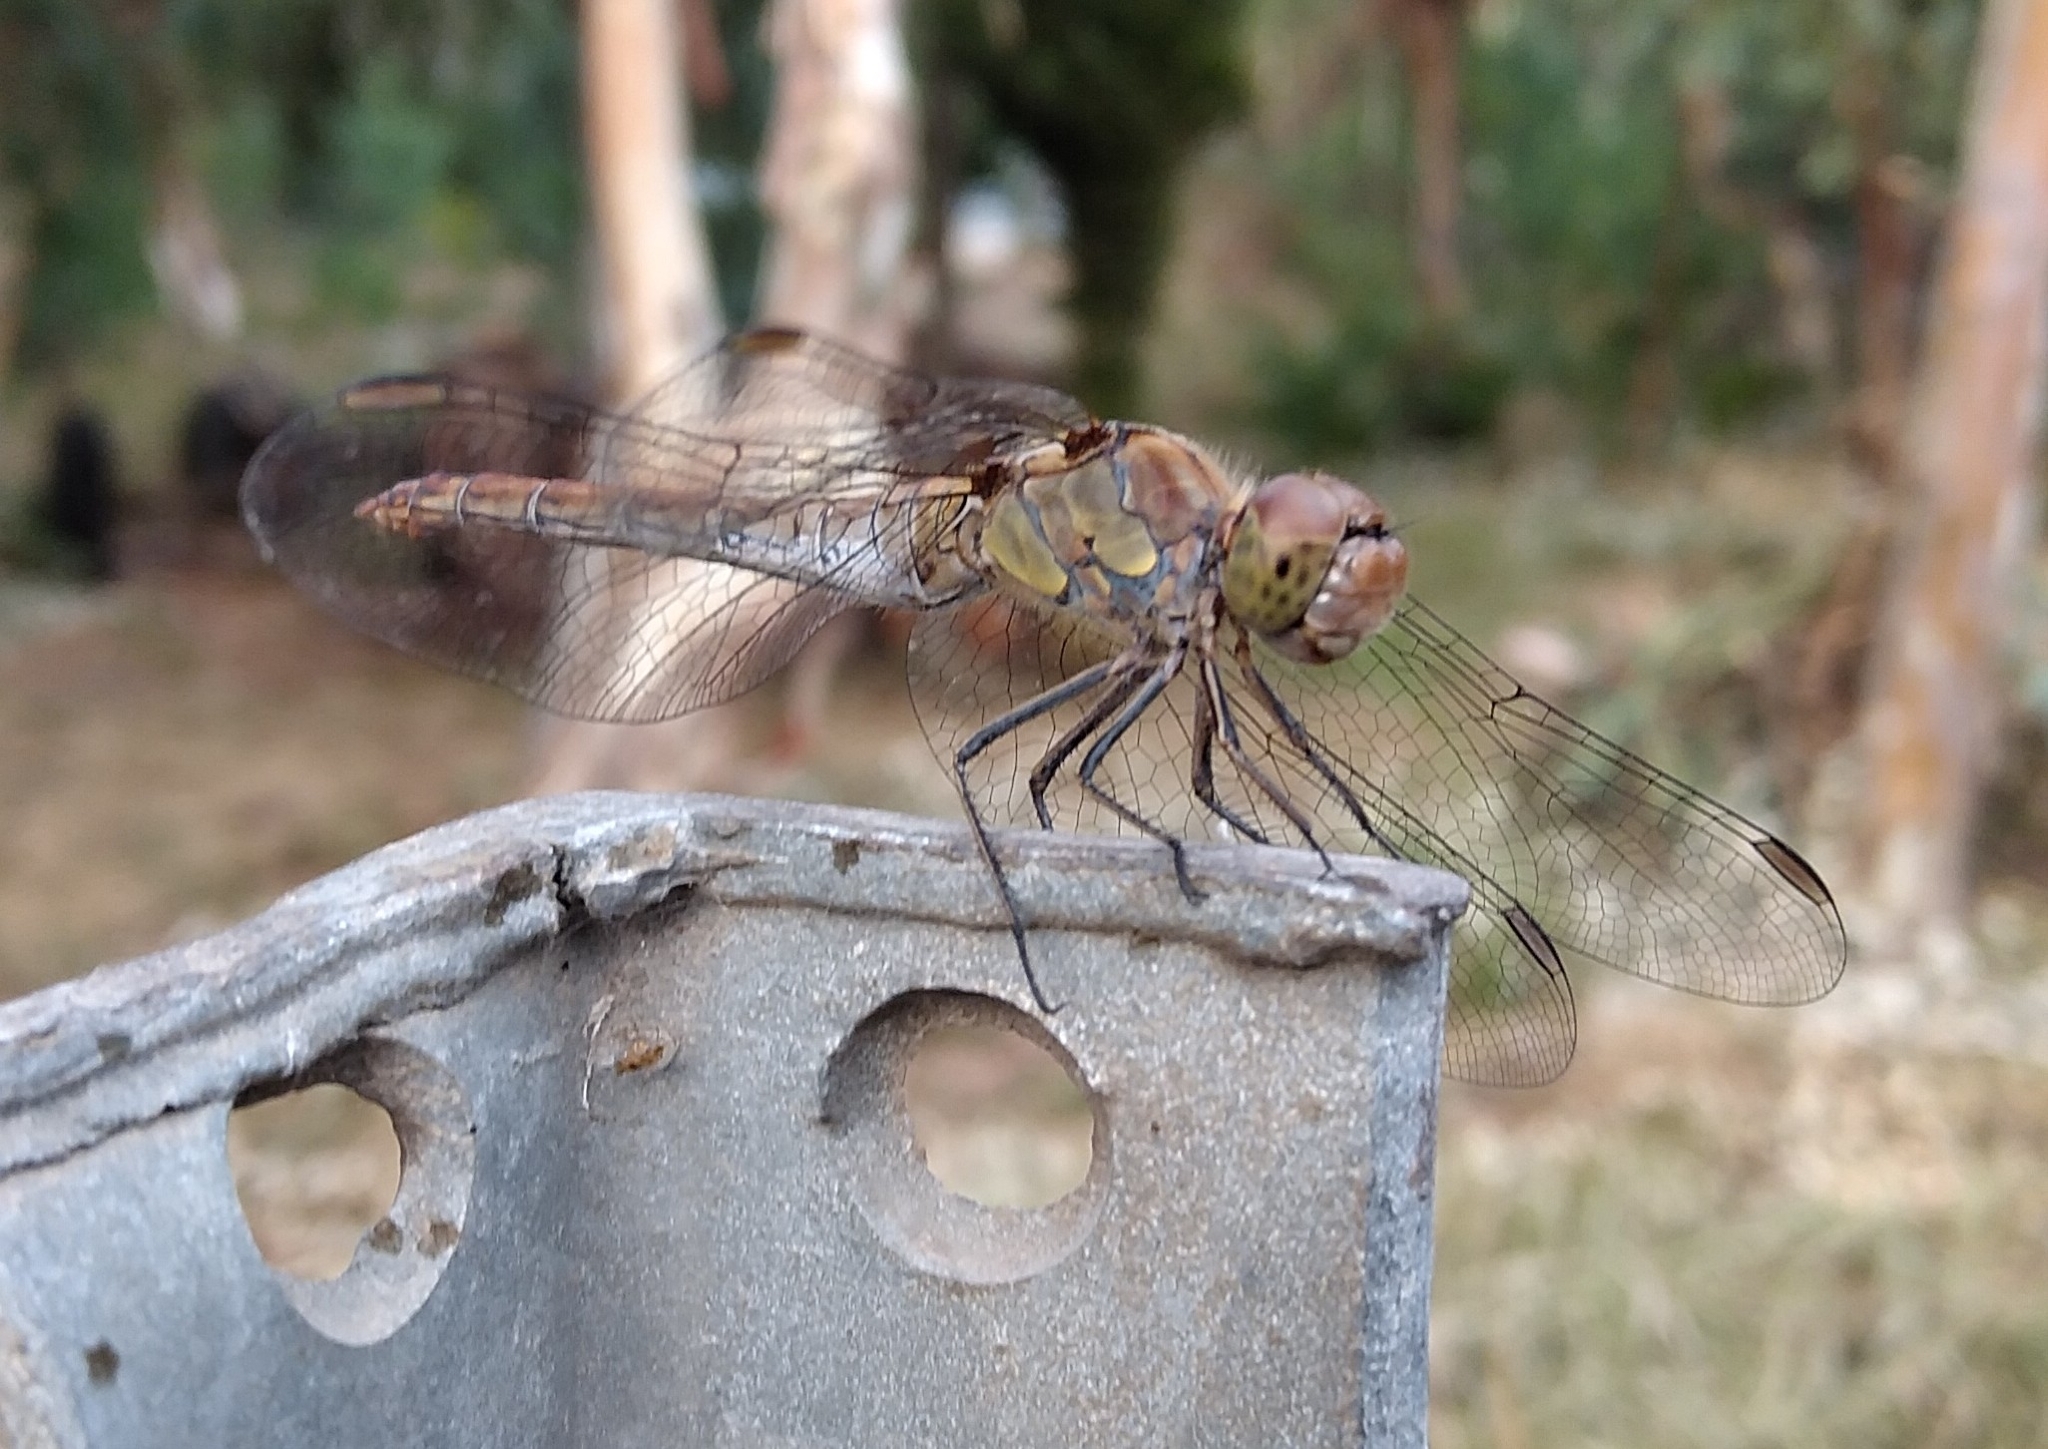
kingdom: Animalia
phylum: Arthropoda
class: Insecta
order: Odonata
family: Libellulidae
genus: Sympetrum
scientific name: Sympetrum striolatum
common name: Common darter
